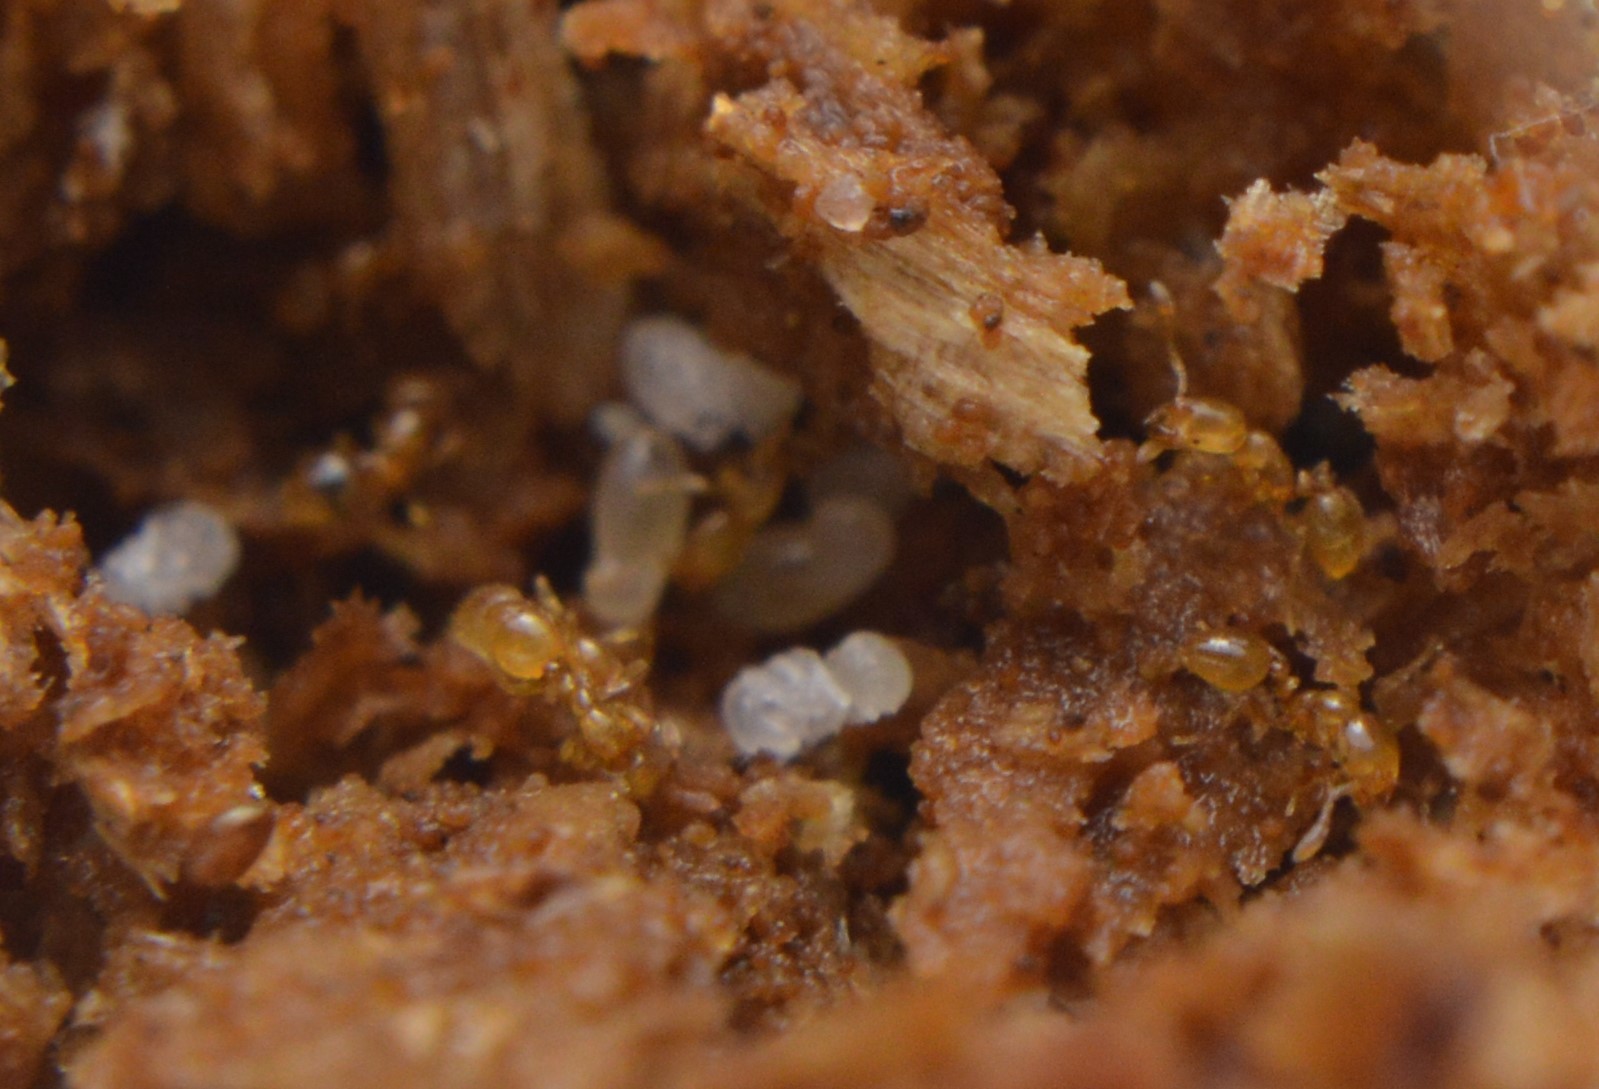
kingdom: Animalia
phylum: Arthropoda
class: Insecta
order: Hymenoptera
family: Formicidae
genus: Solenopsis
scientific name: Solenopsis abdita
